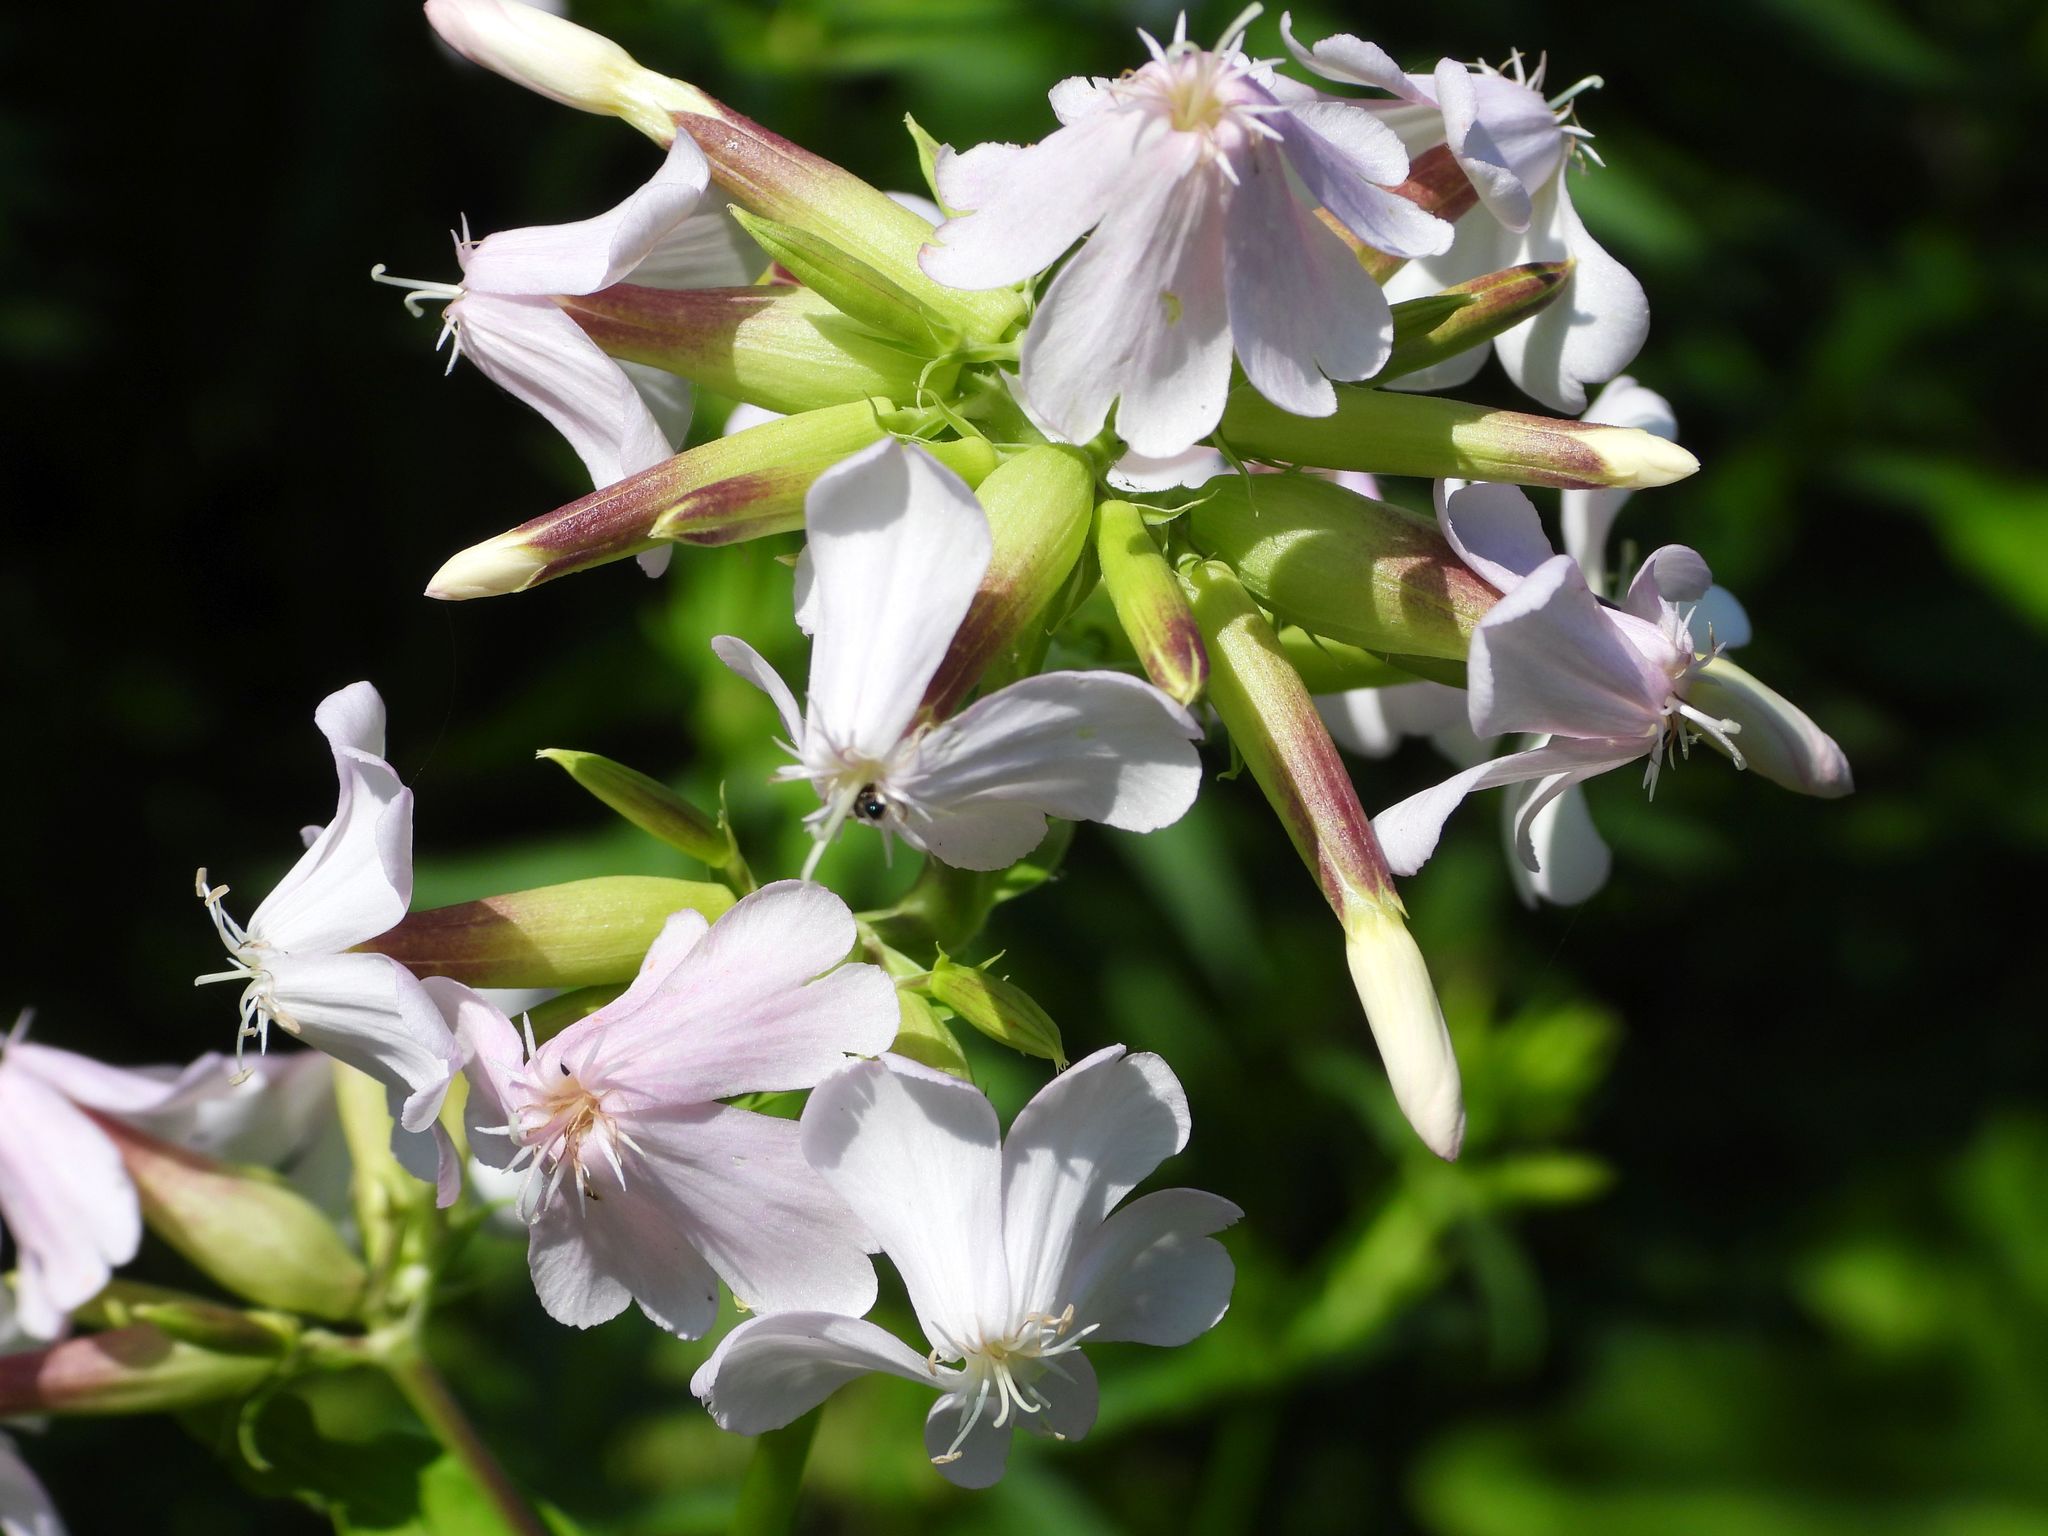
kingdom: Plantae
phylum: Tracheophyta
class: Magnoliopsida
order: Caryophyllales
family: Caryophyllaceae
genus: Saponaria
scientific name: Saponaria officinalis
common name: Soapwort
